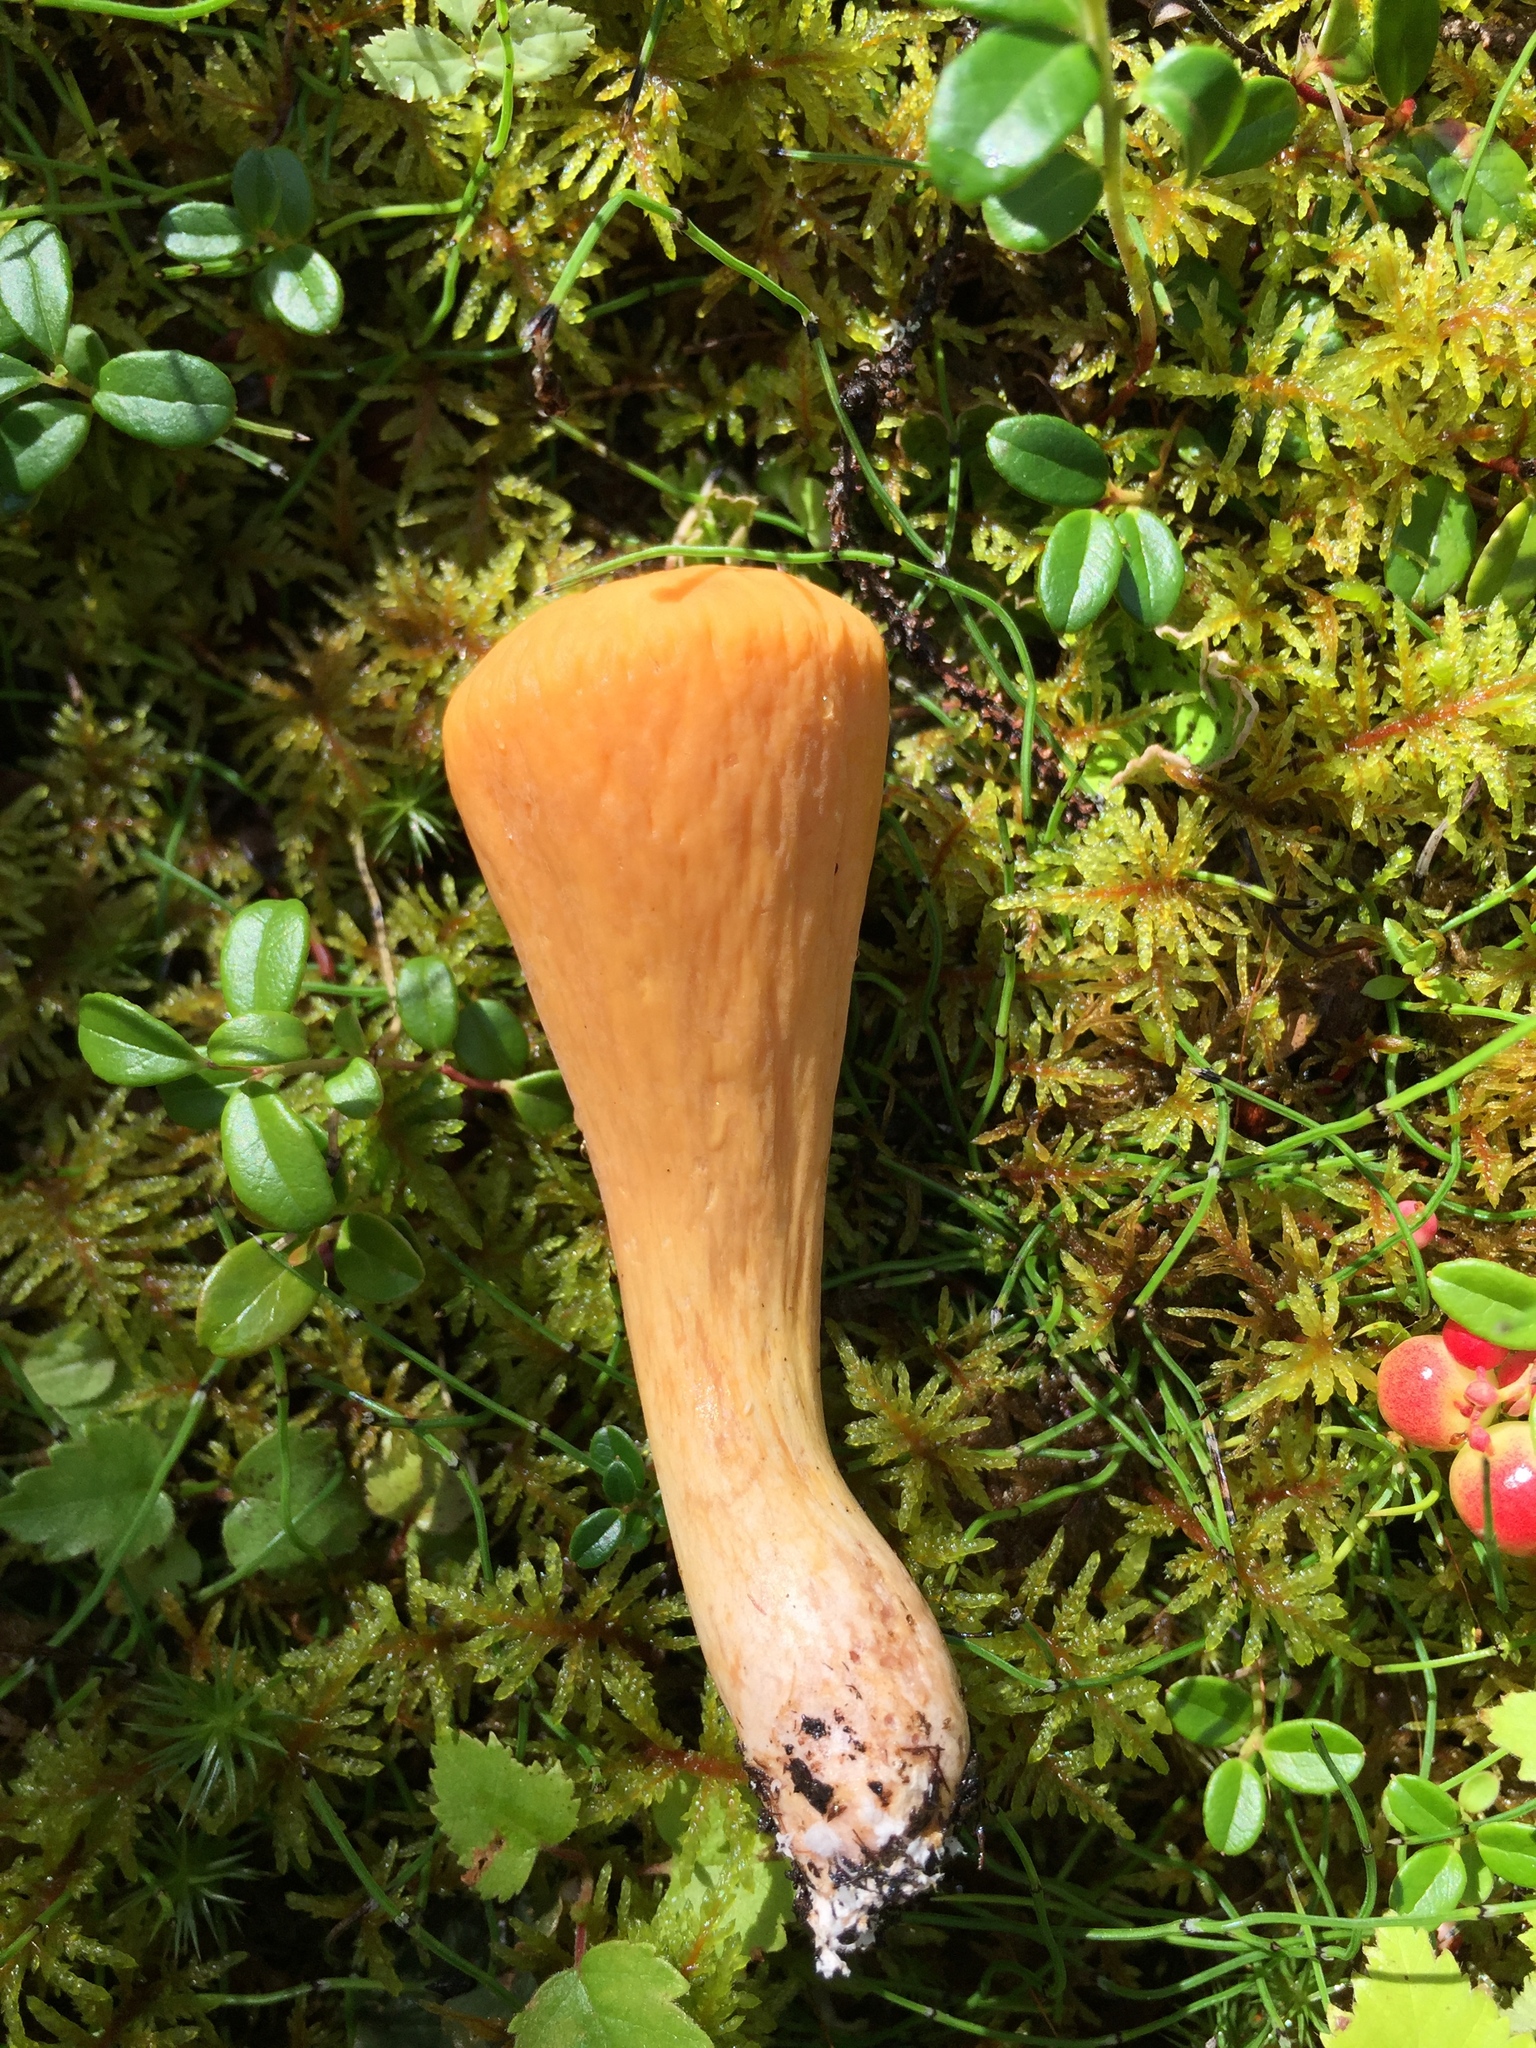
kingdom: Fungi
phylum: Basidiomycota
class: Agaricomycetes
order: Gomphales
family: Clavariadelphaceae
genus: Clavariadelphus
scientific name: Clavariadelphus truncatus
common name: Truncated club
